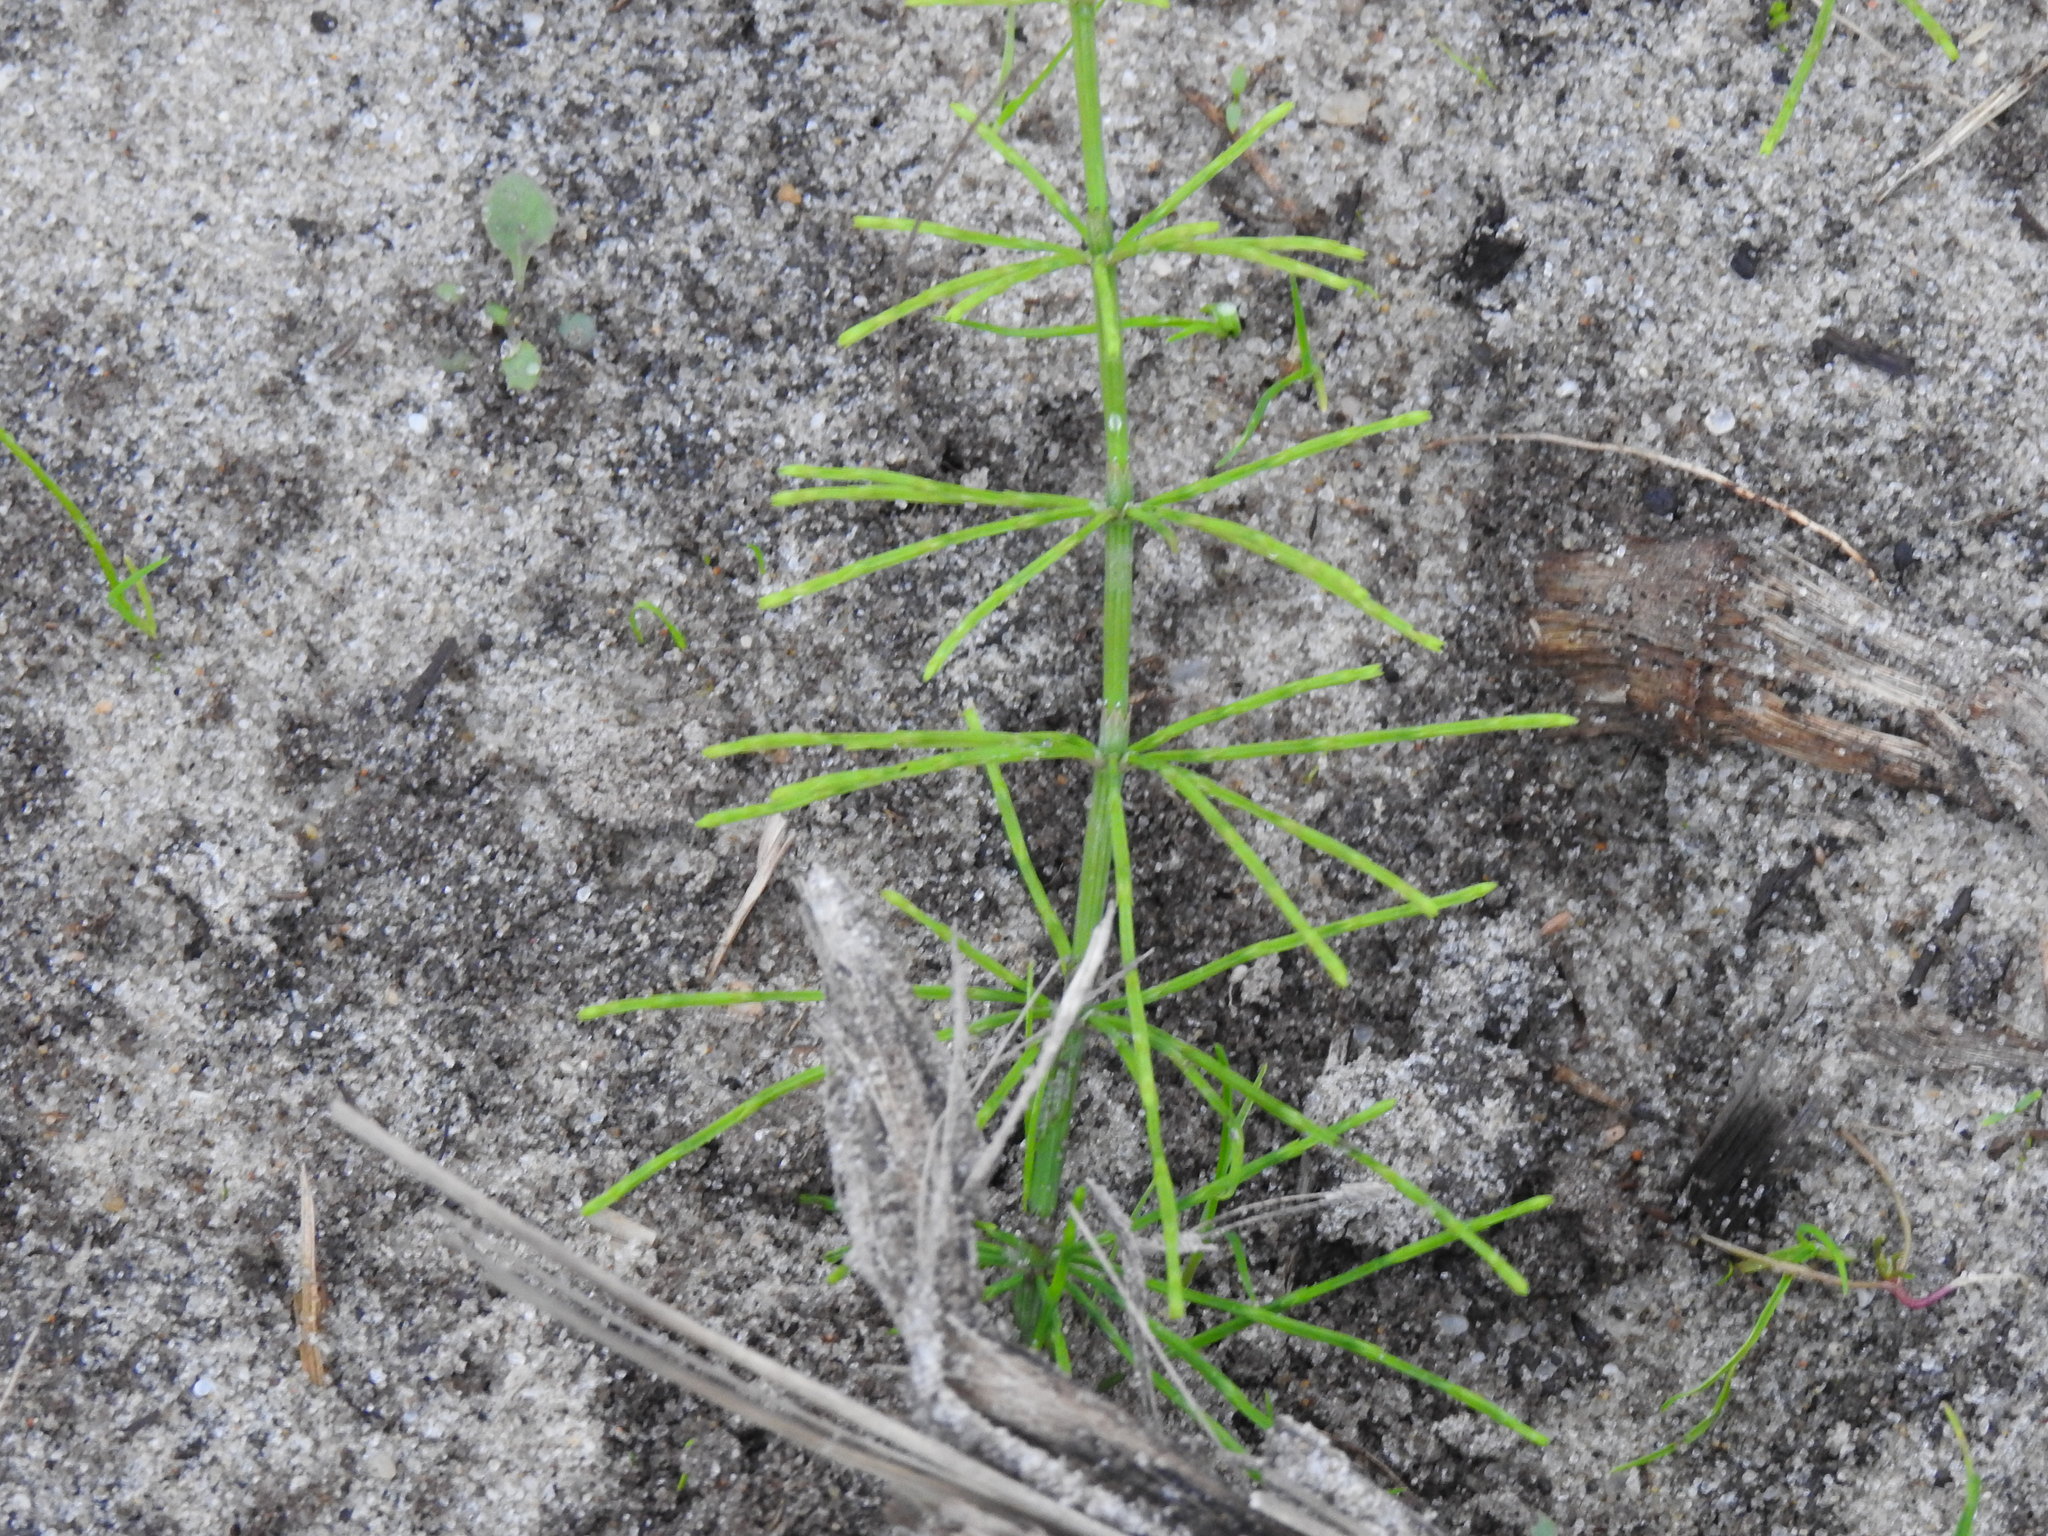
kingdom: Plantae
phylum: Tracheophyta
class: Polypodiopsida
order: Equisetales
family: Equisetaceae
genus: Equisetum
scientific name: Equisetum arvense
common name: Field horsetail
